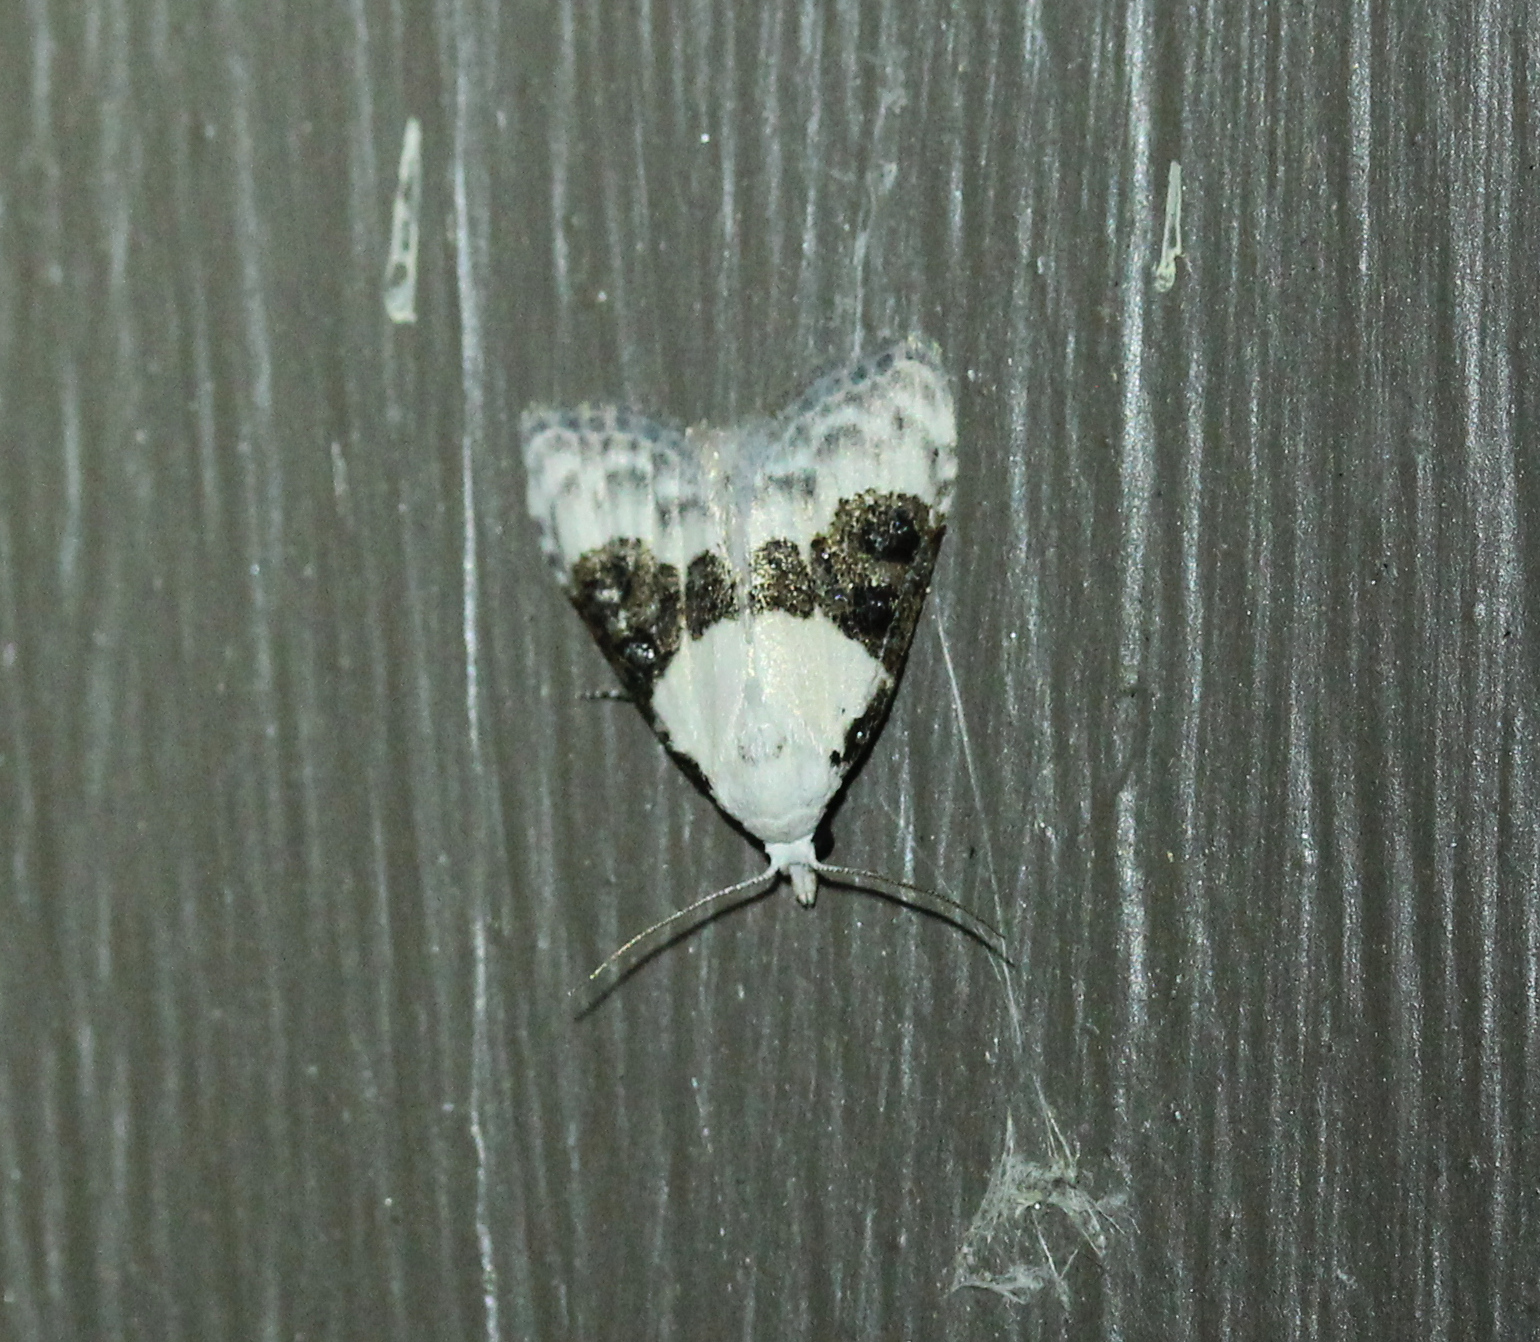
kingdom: Animalia
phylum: Arthropoda
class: Insecta
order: Lepidoptera
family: Nolidae
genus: Nola
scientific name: Nola pustulata
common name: Sharp-blotched nola moth
